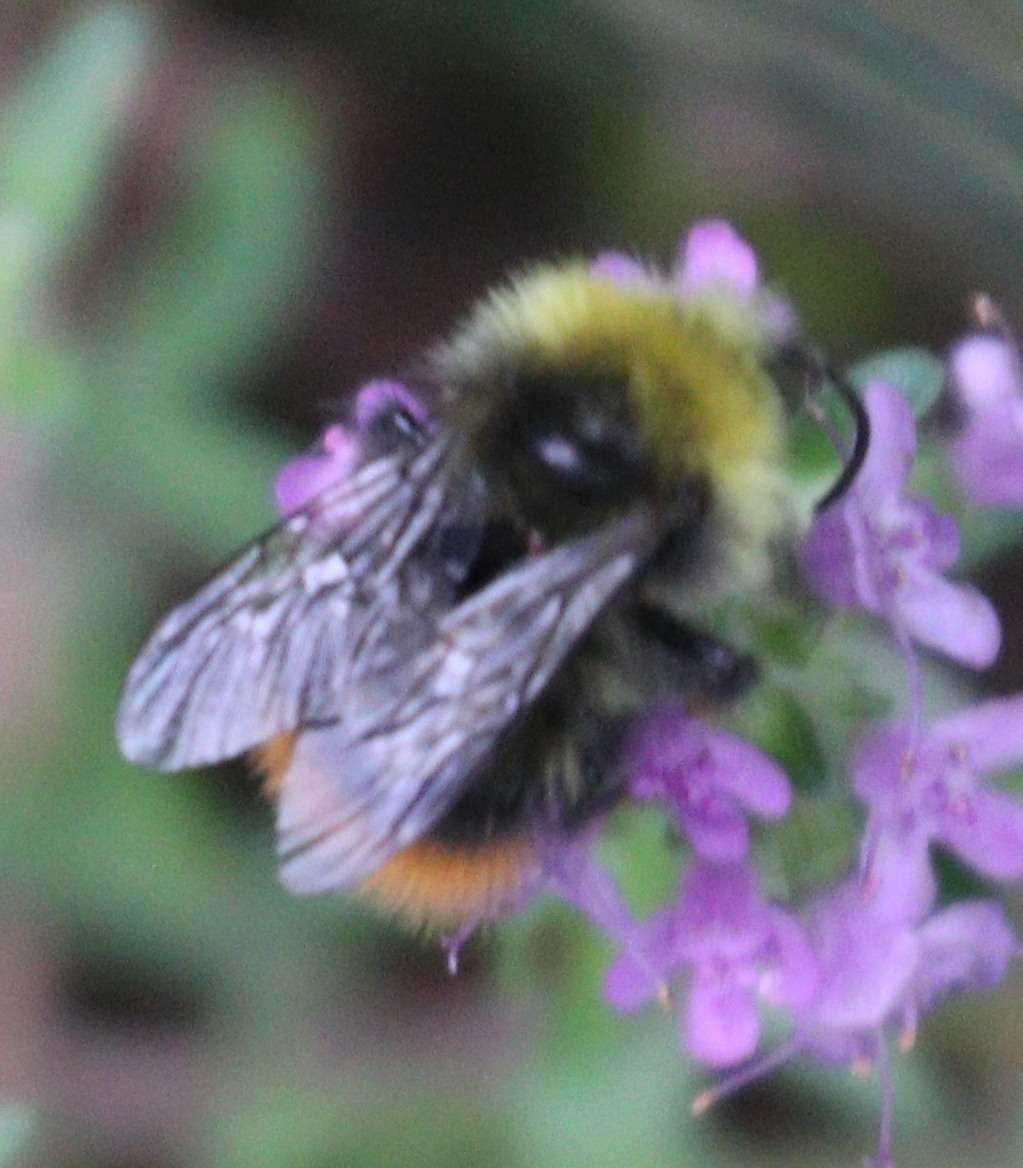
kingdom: Animalia
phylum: Arthropoda
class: Insecta
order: Hymenoptera
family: Apidae
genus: Bombus
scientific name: Bombus pratorum
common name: Early humble-bee
